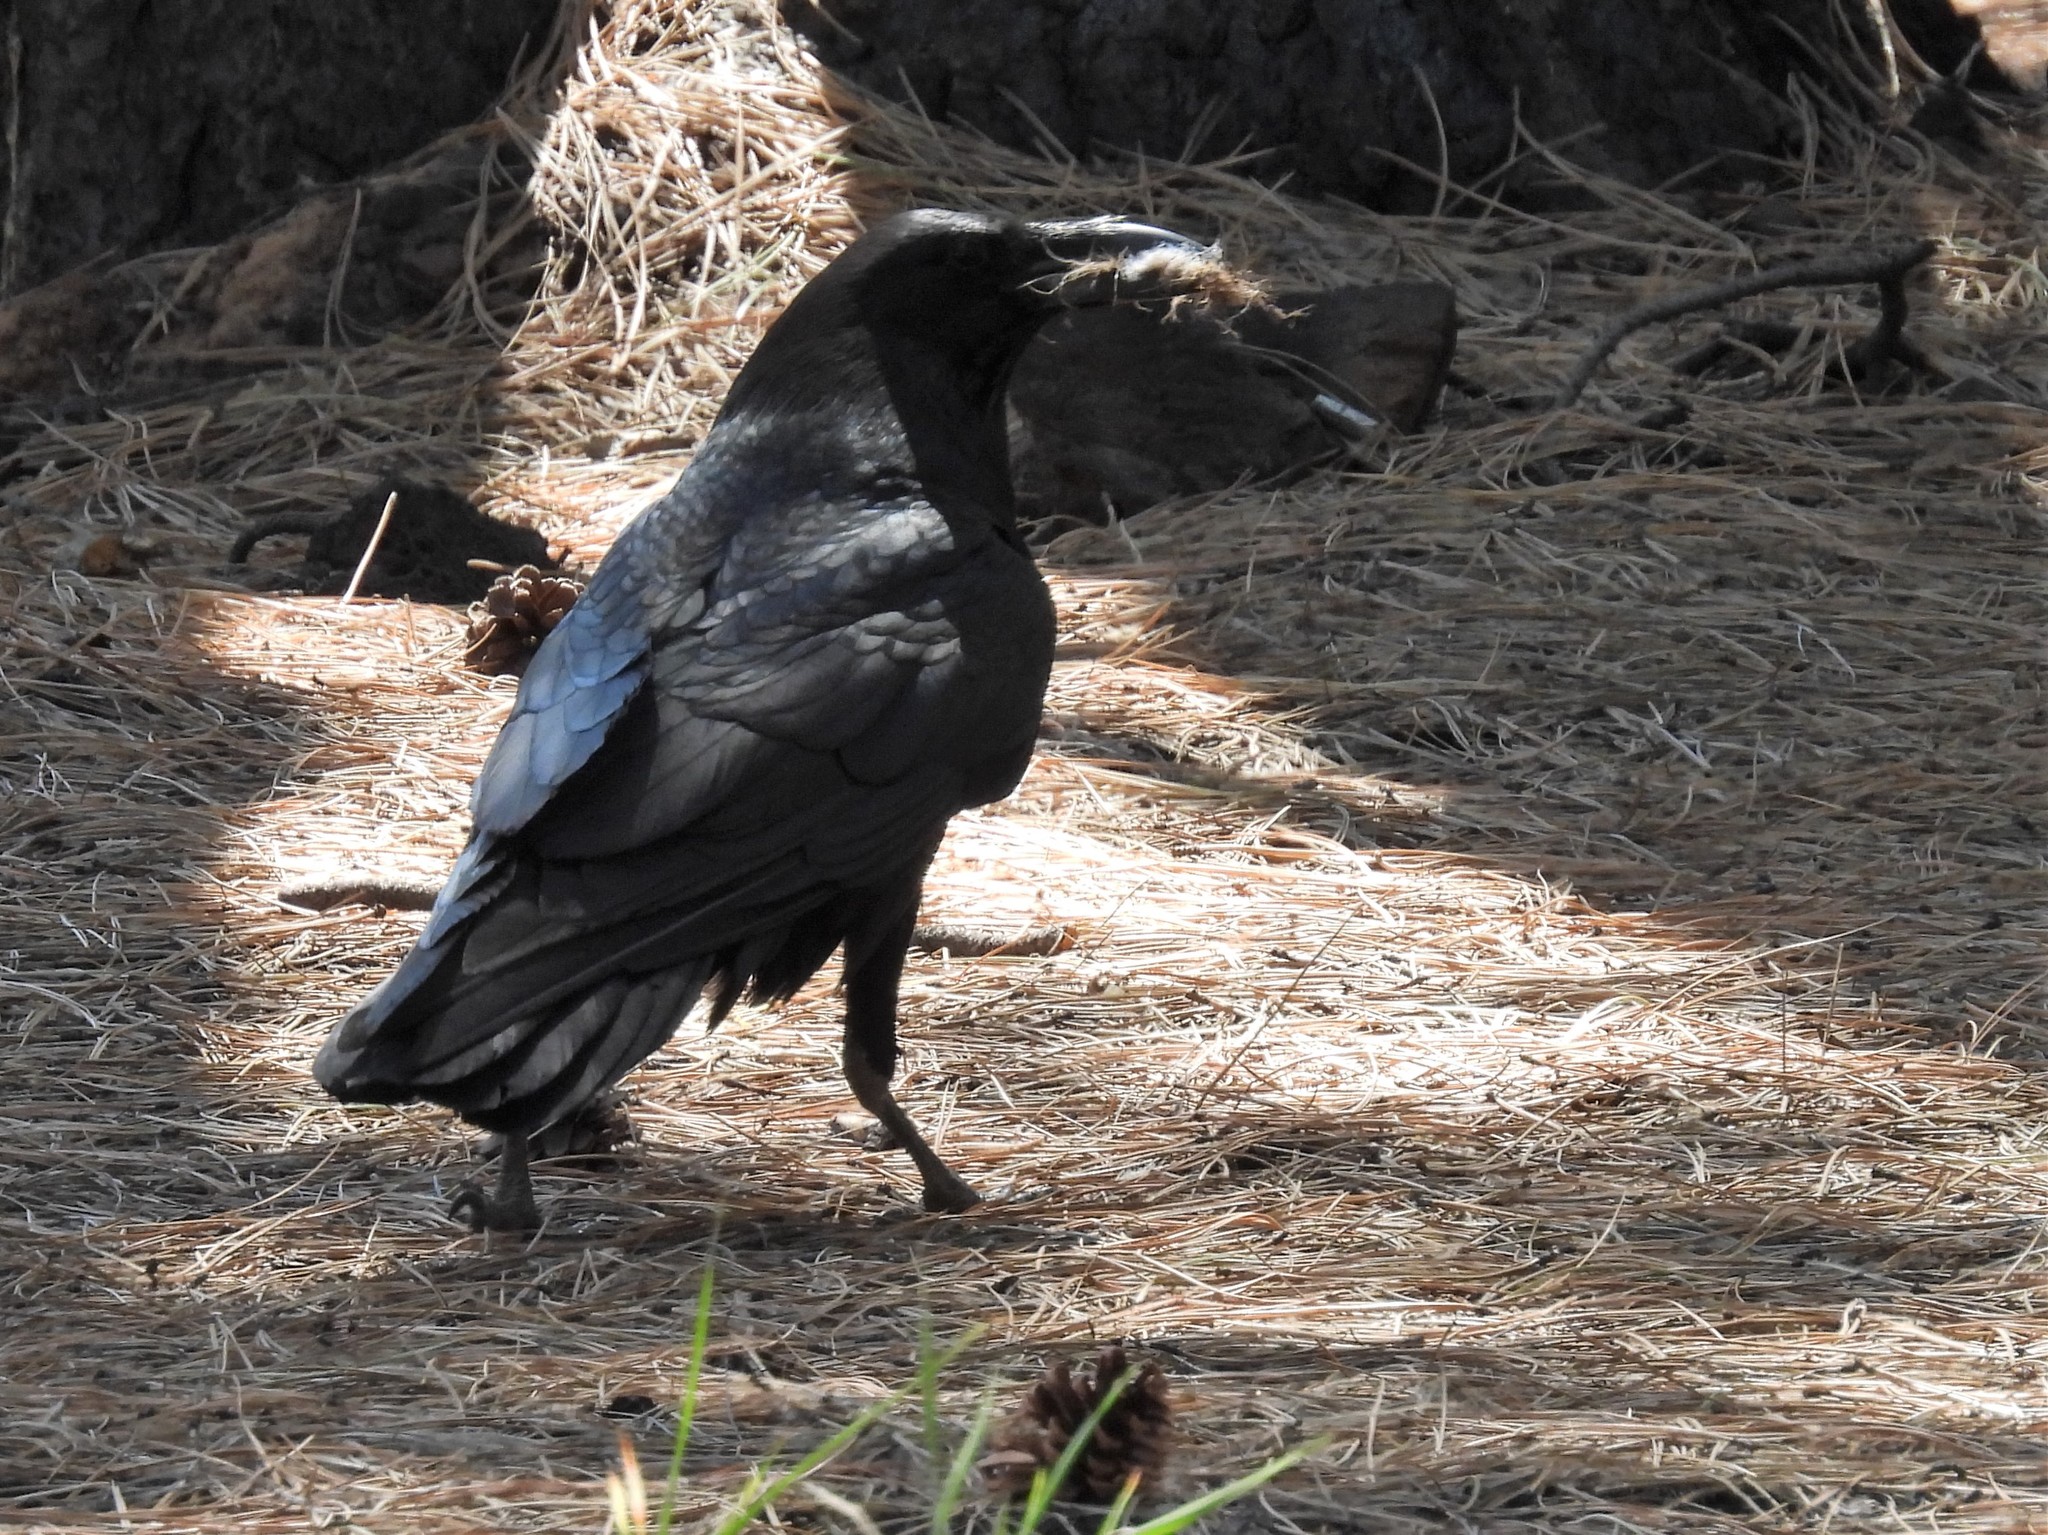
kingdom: Animalia
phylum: Chordata
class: Aves
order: Passeriformes
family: Corvidae
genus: Corvus
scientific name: Corvus corax
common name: Common raven
